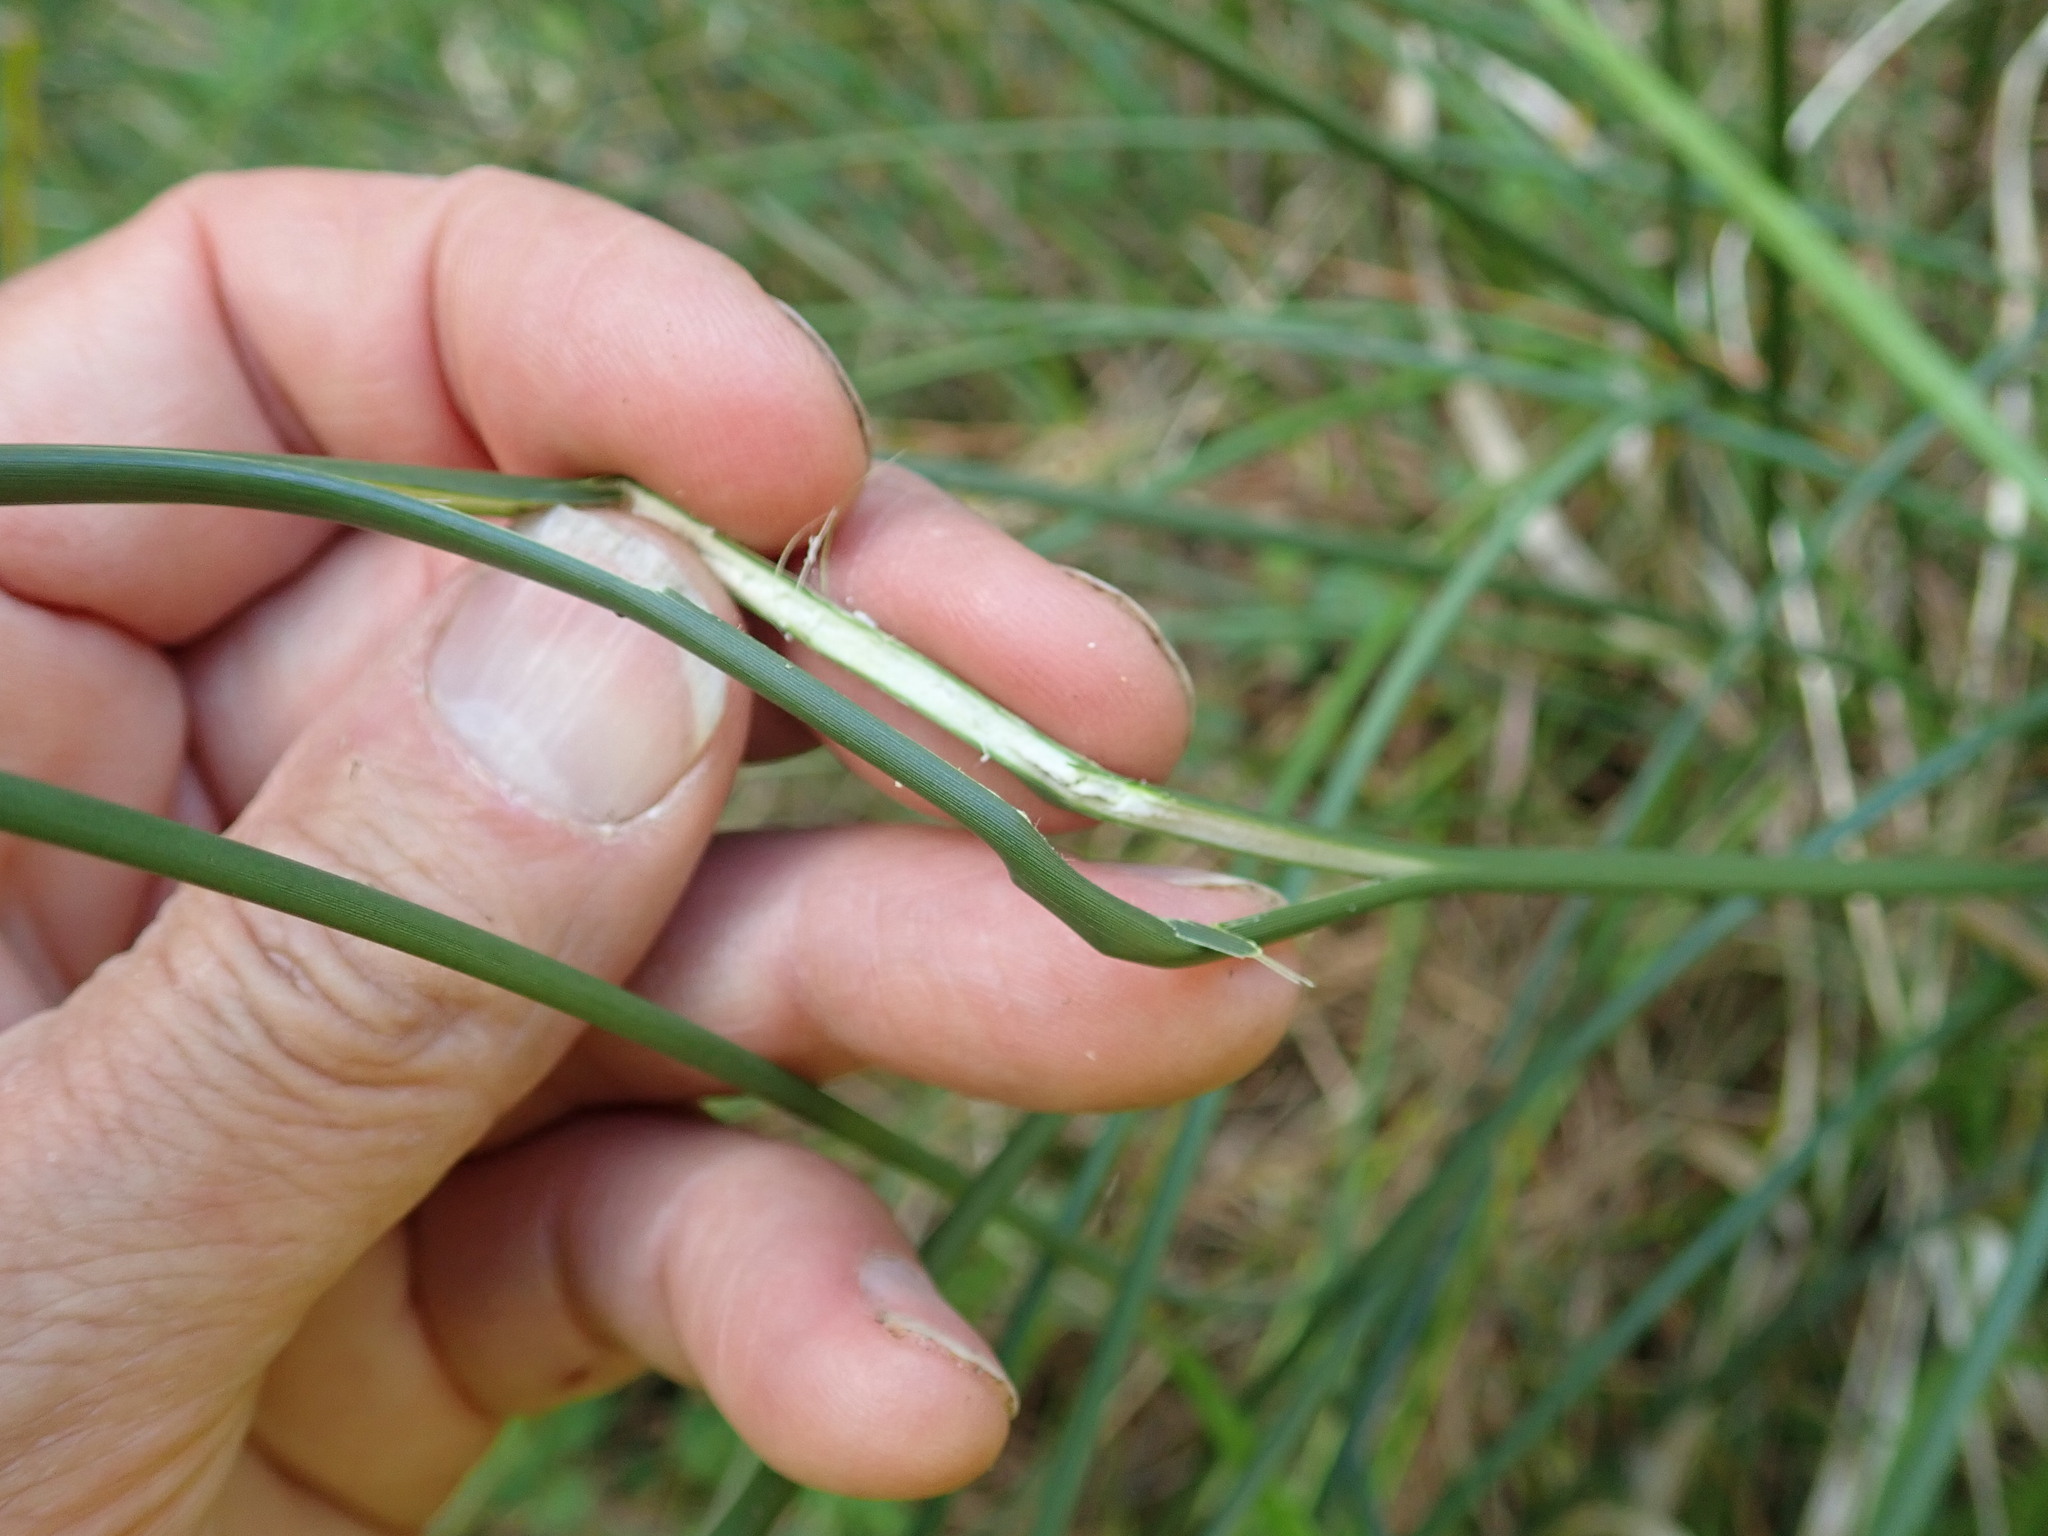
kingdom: Plantae
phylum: Tracheophyta
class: Liliopsida
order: Poales
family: Juncaceae
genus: Juncus
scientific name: Juncus acutus
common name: Sharp rush
